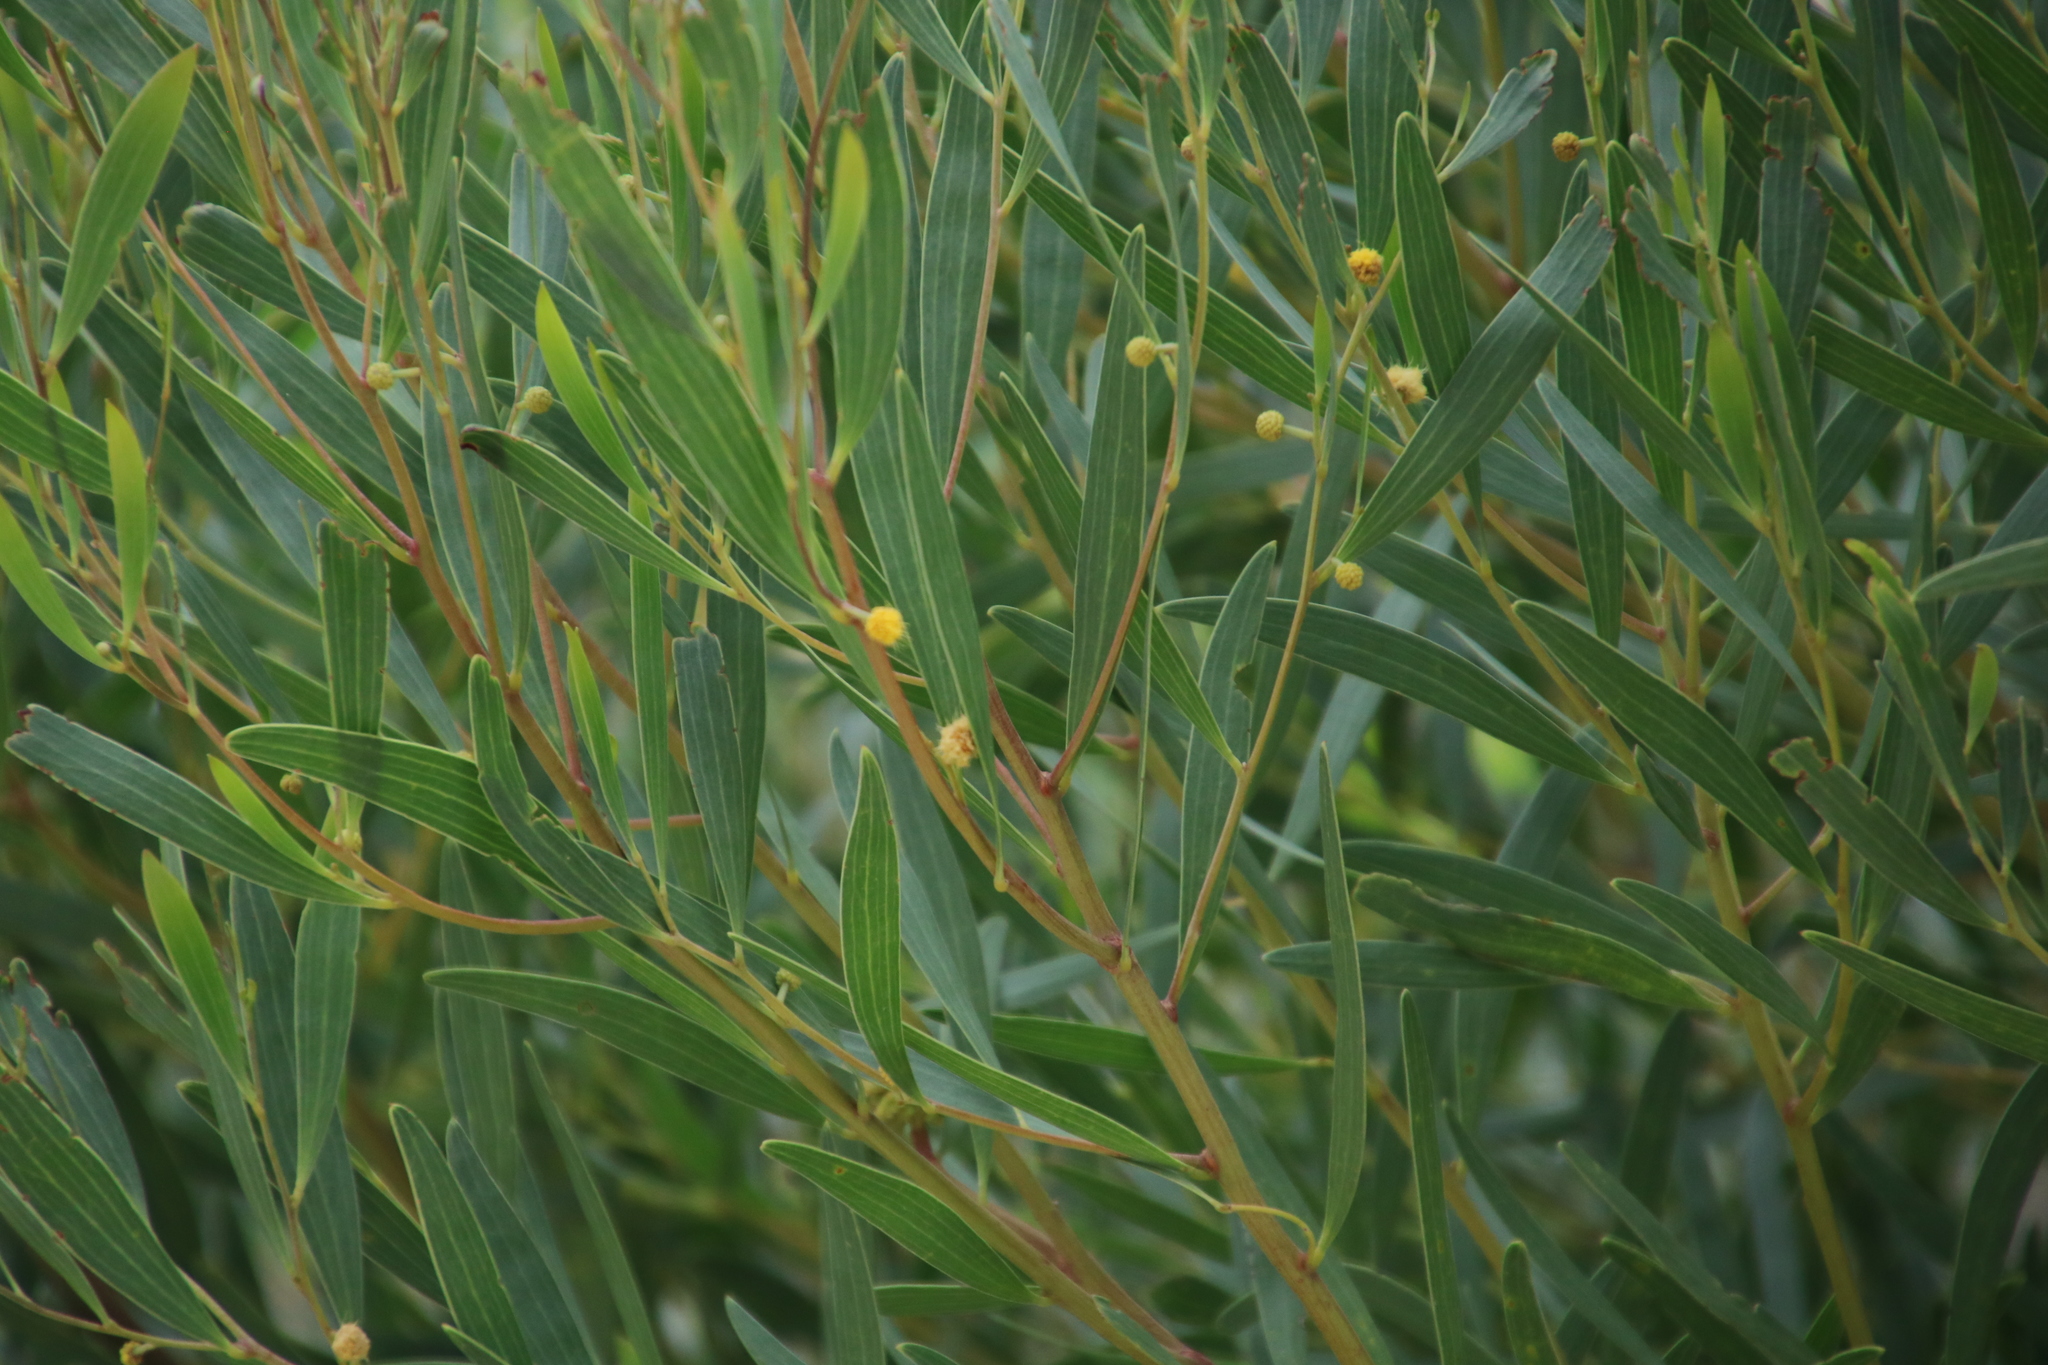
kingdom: Plantae
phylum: Tracheophyta
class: Magnoliopsida
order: Fabales
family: Fabaceae
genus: Acacia
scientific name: Acacia cyclops
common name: Coastal wattle
